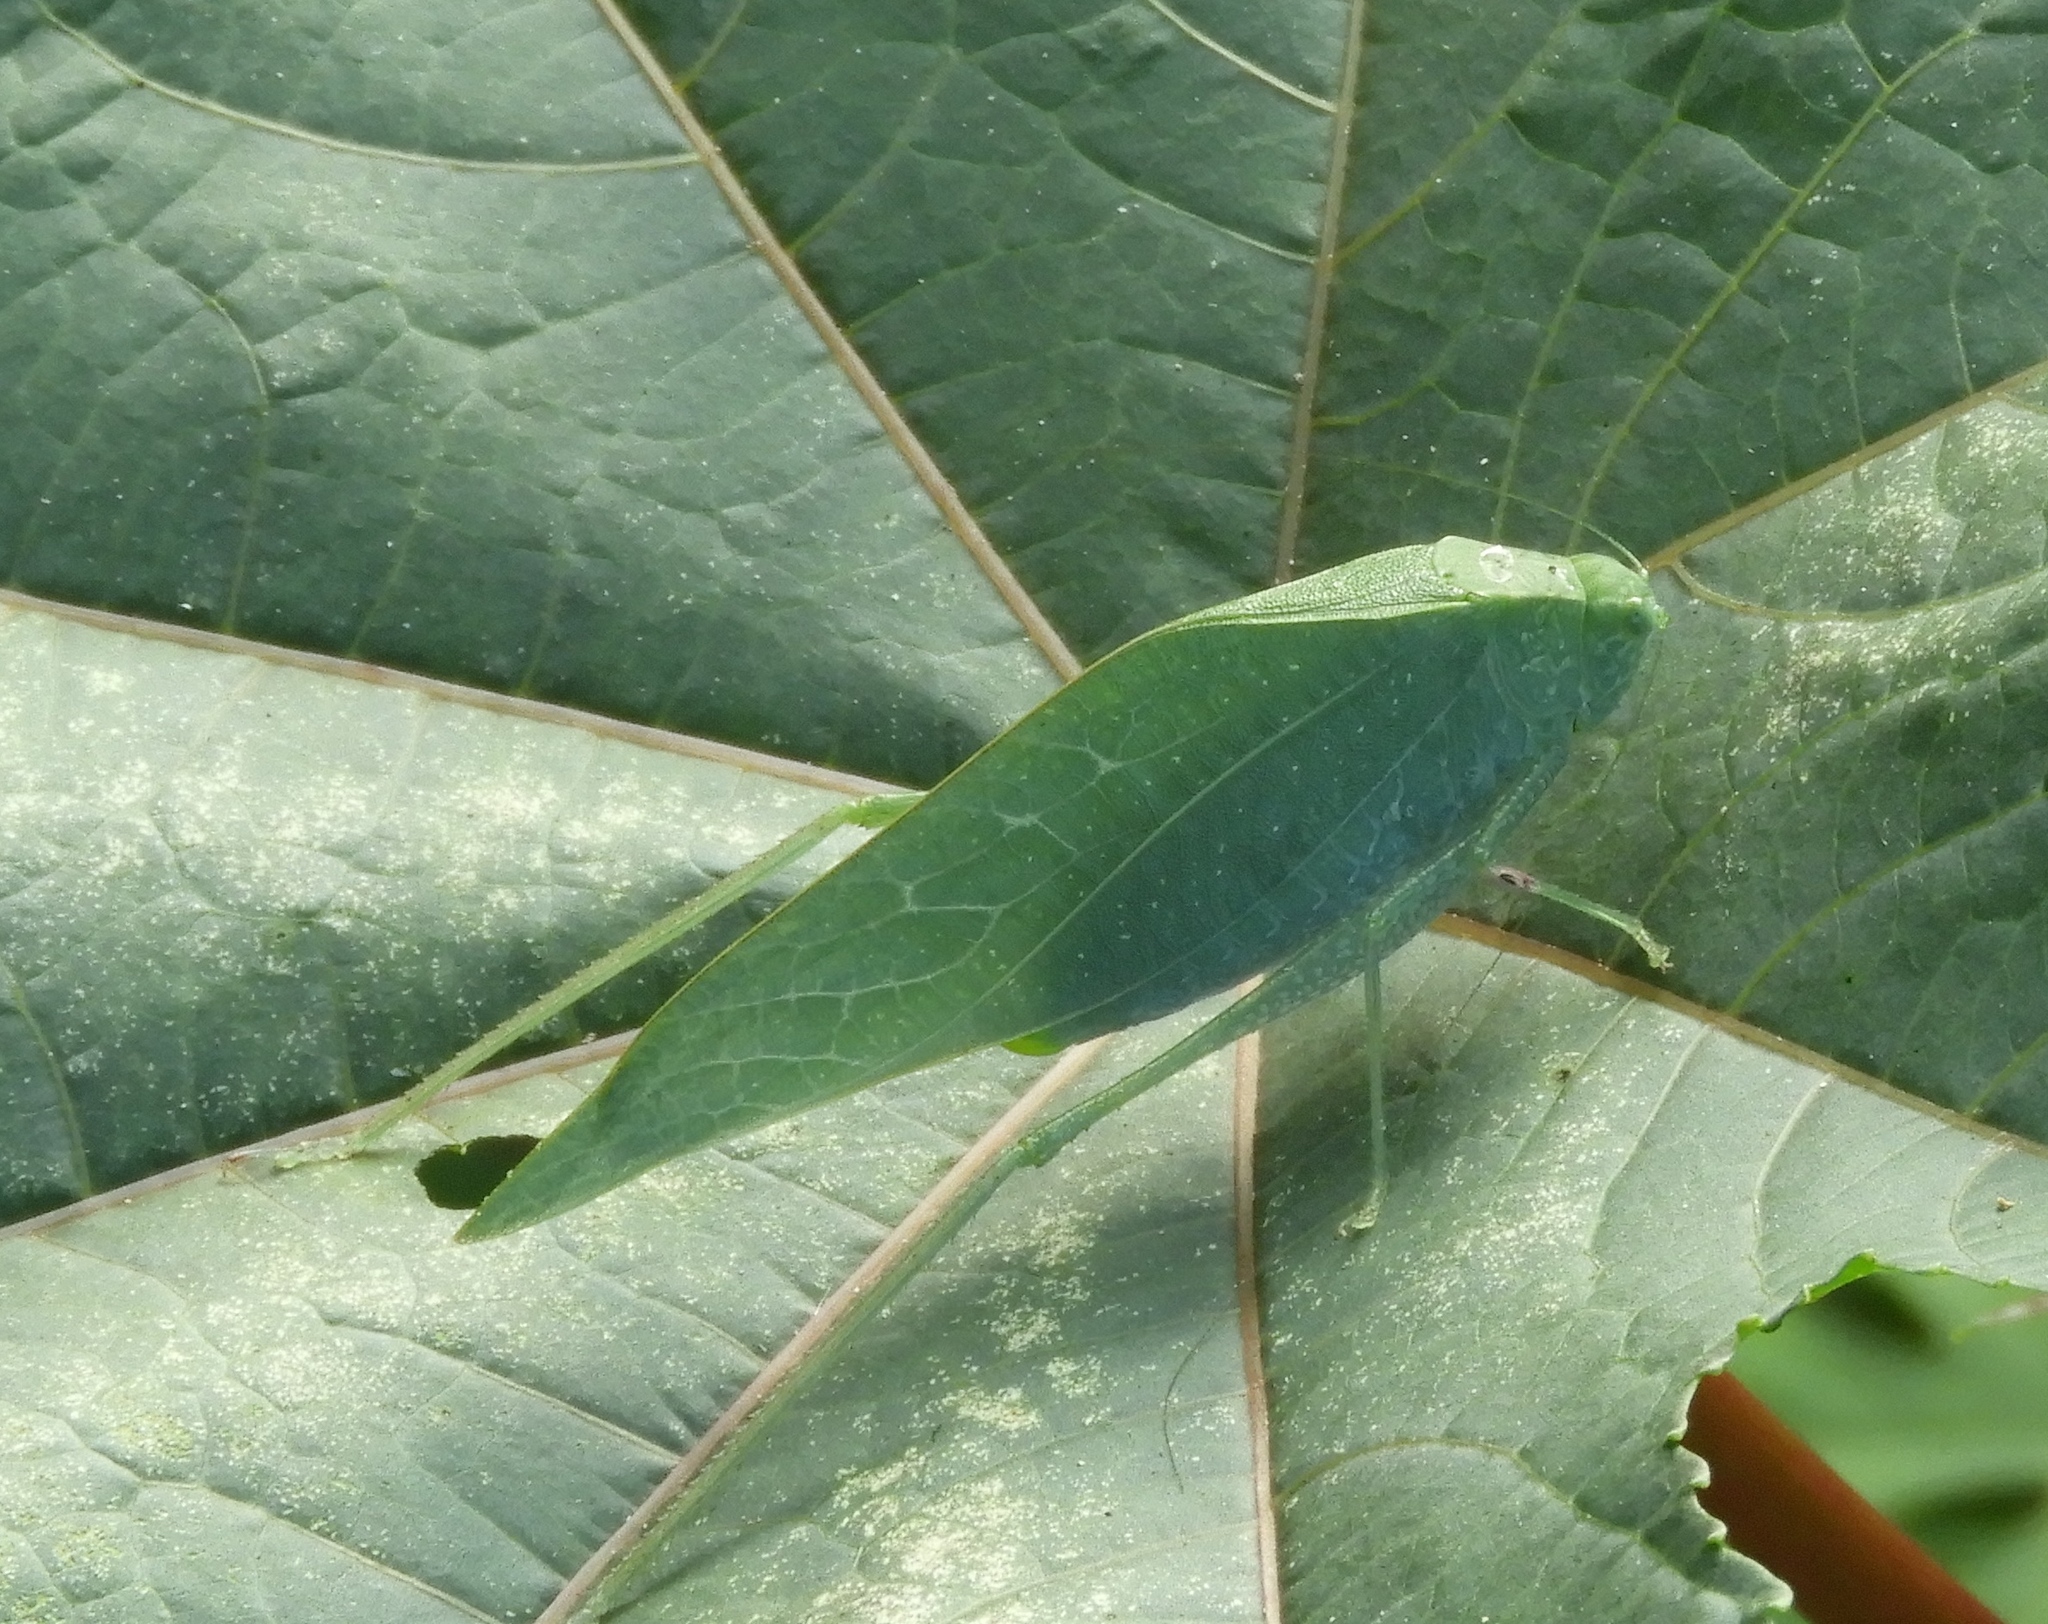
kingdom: Animalia
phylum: Arthropoda
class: Insecta
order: Orthoptera
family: Tettigoniidae
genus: Microcentrum
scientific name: Microcentrum
